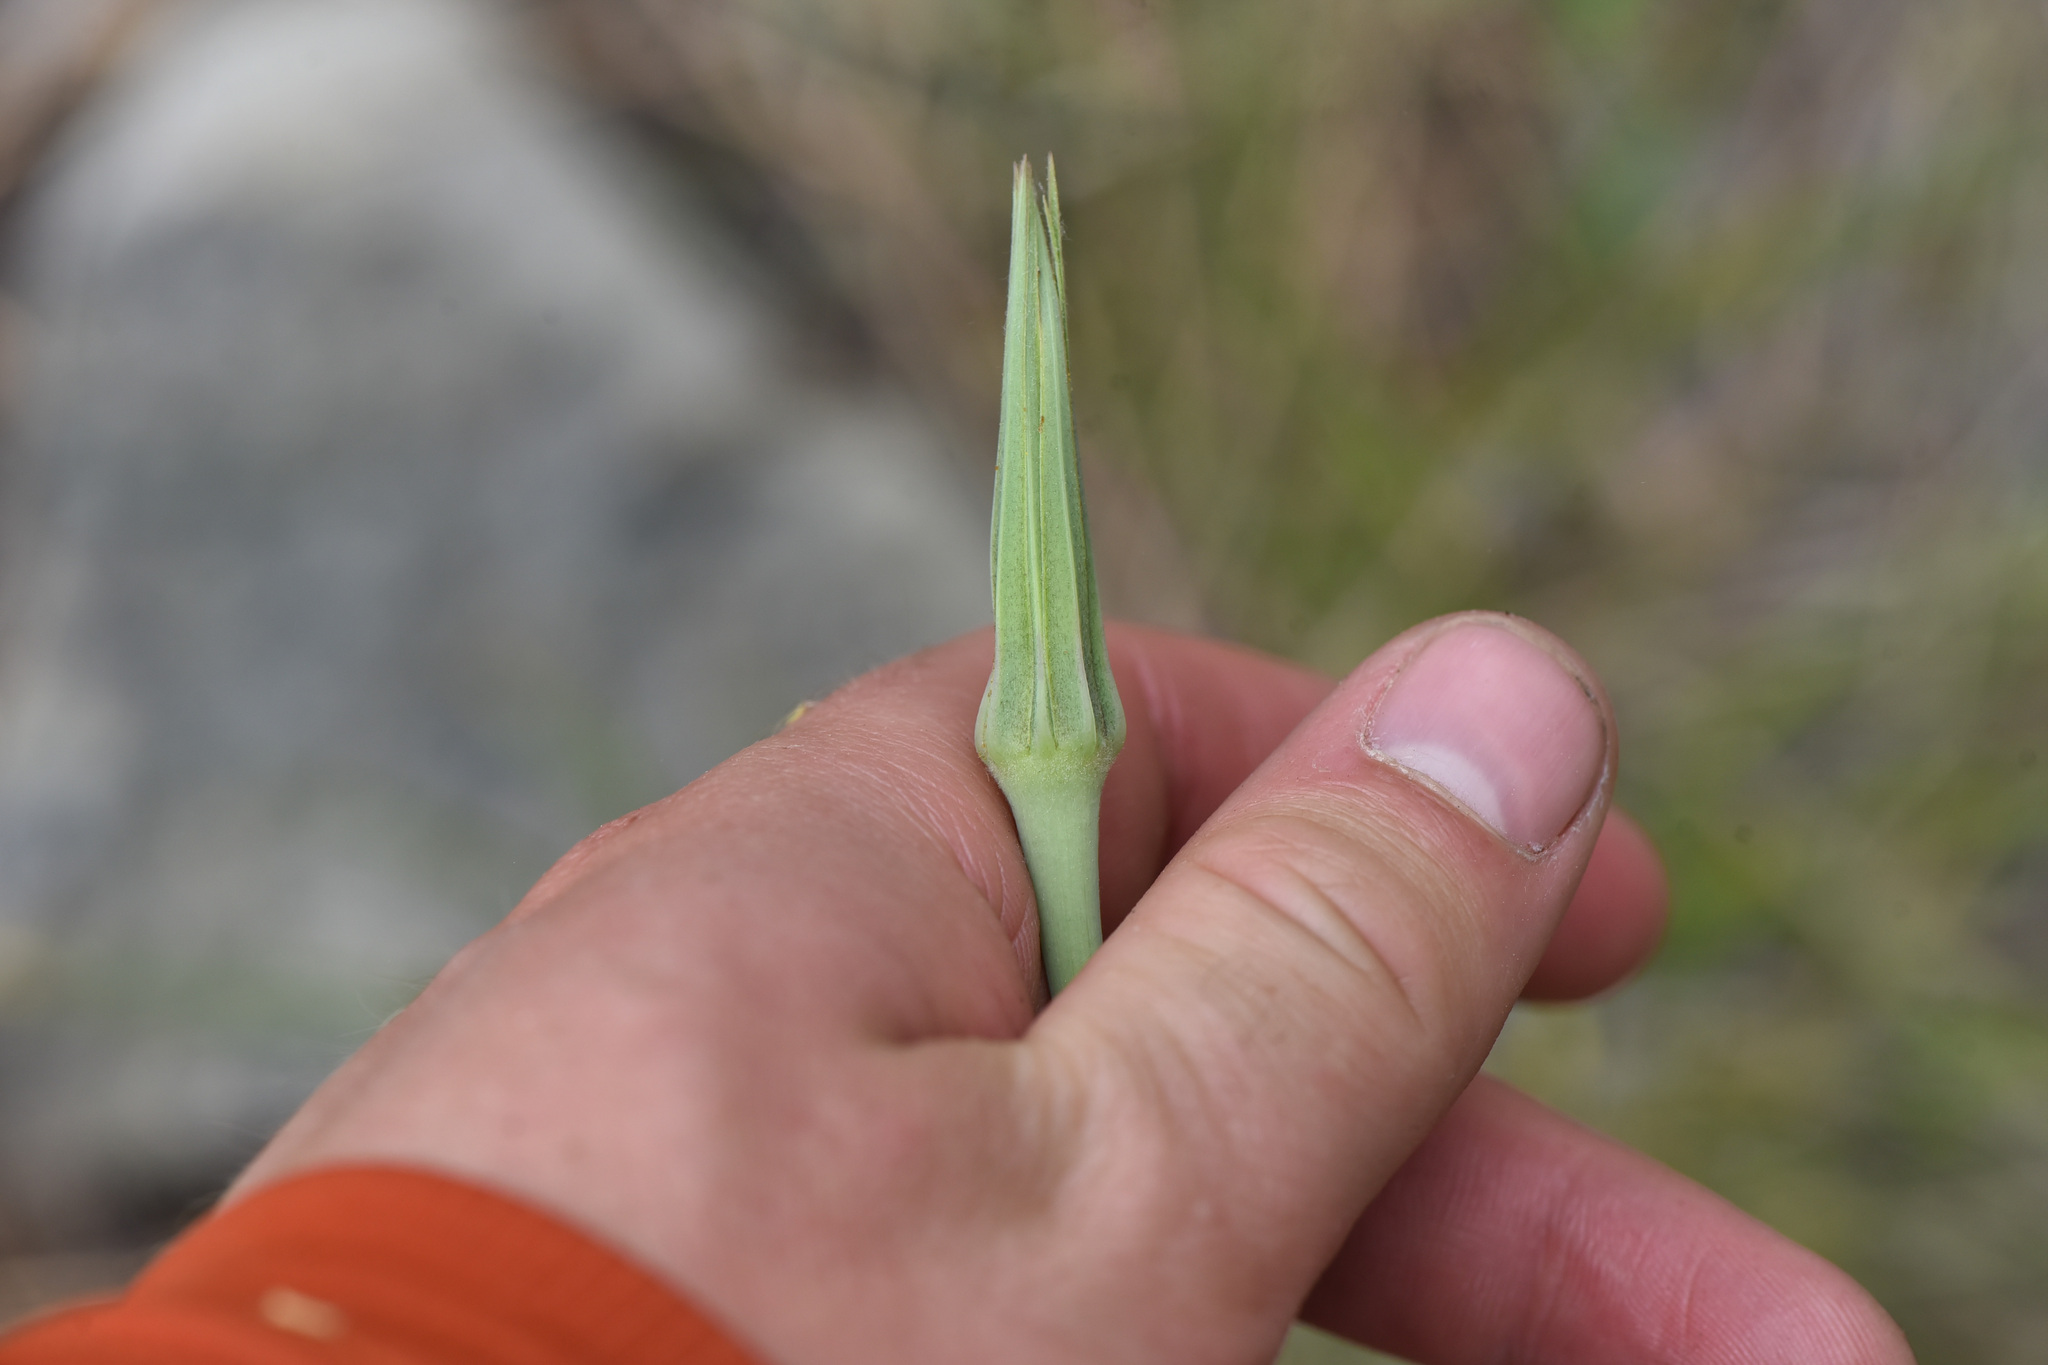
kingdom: Plantae
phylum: Tracheophyta
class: Magnoliopsida
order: Asterales
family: Asteraceae
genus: Tragopogon
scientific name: Tragopogon dubius
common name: Yellow salsify
